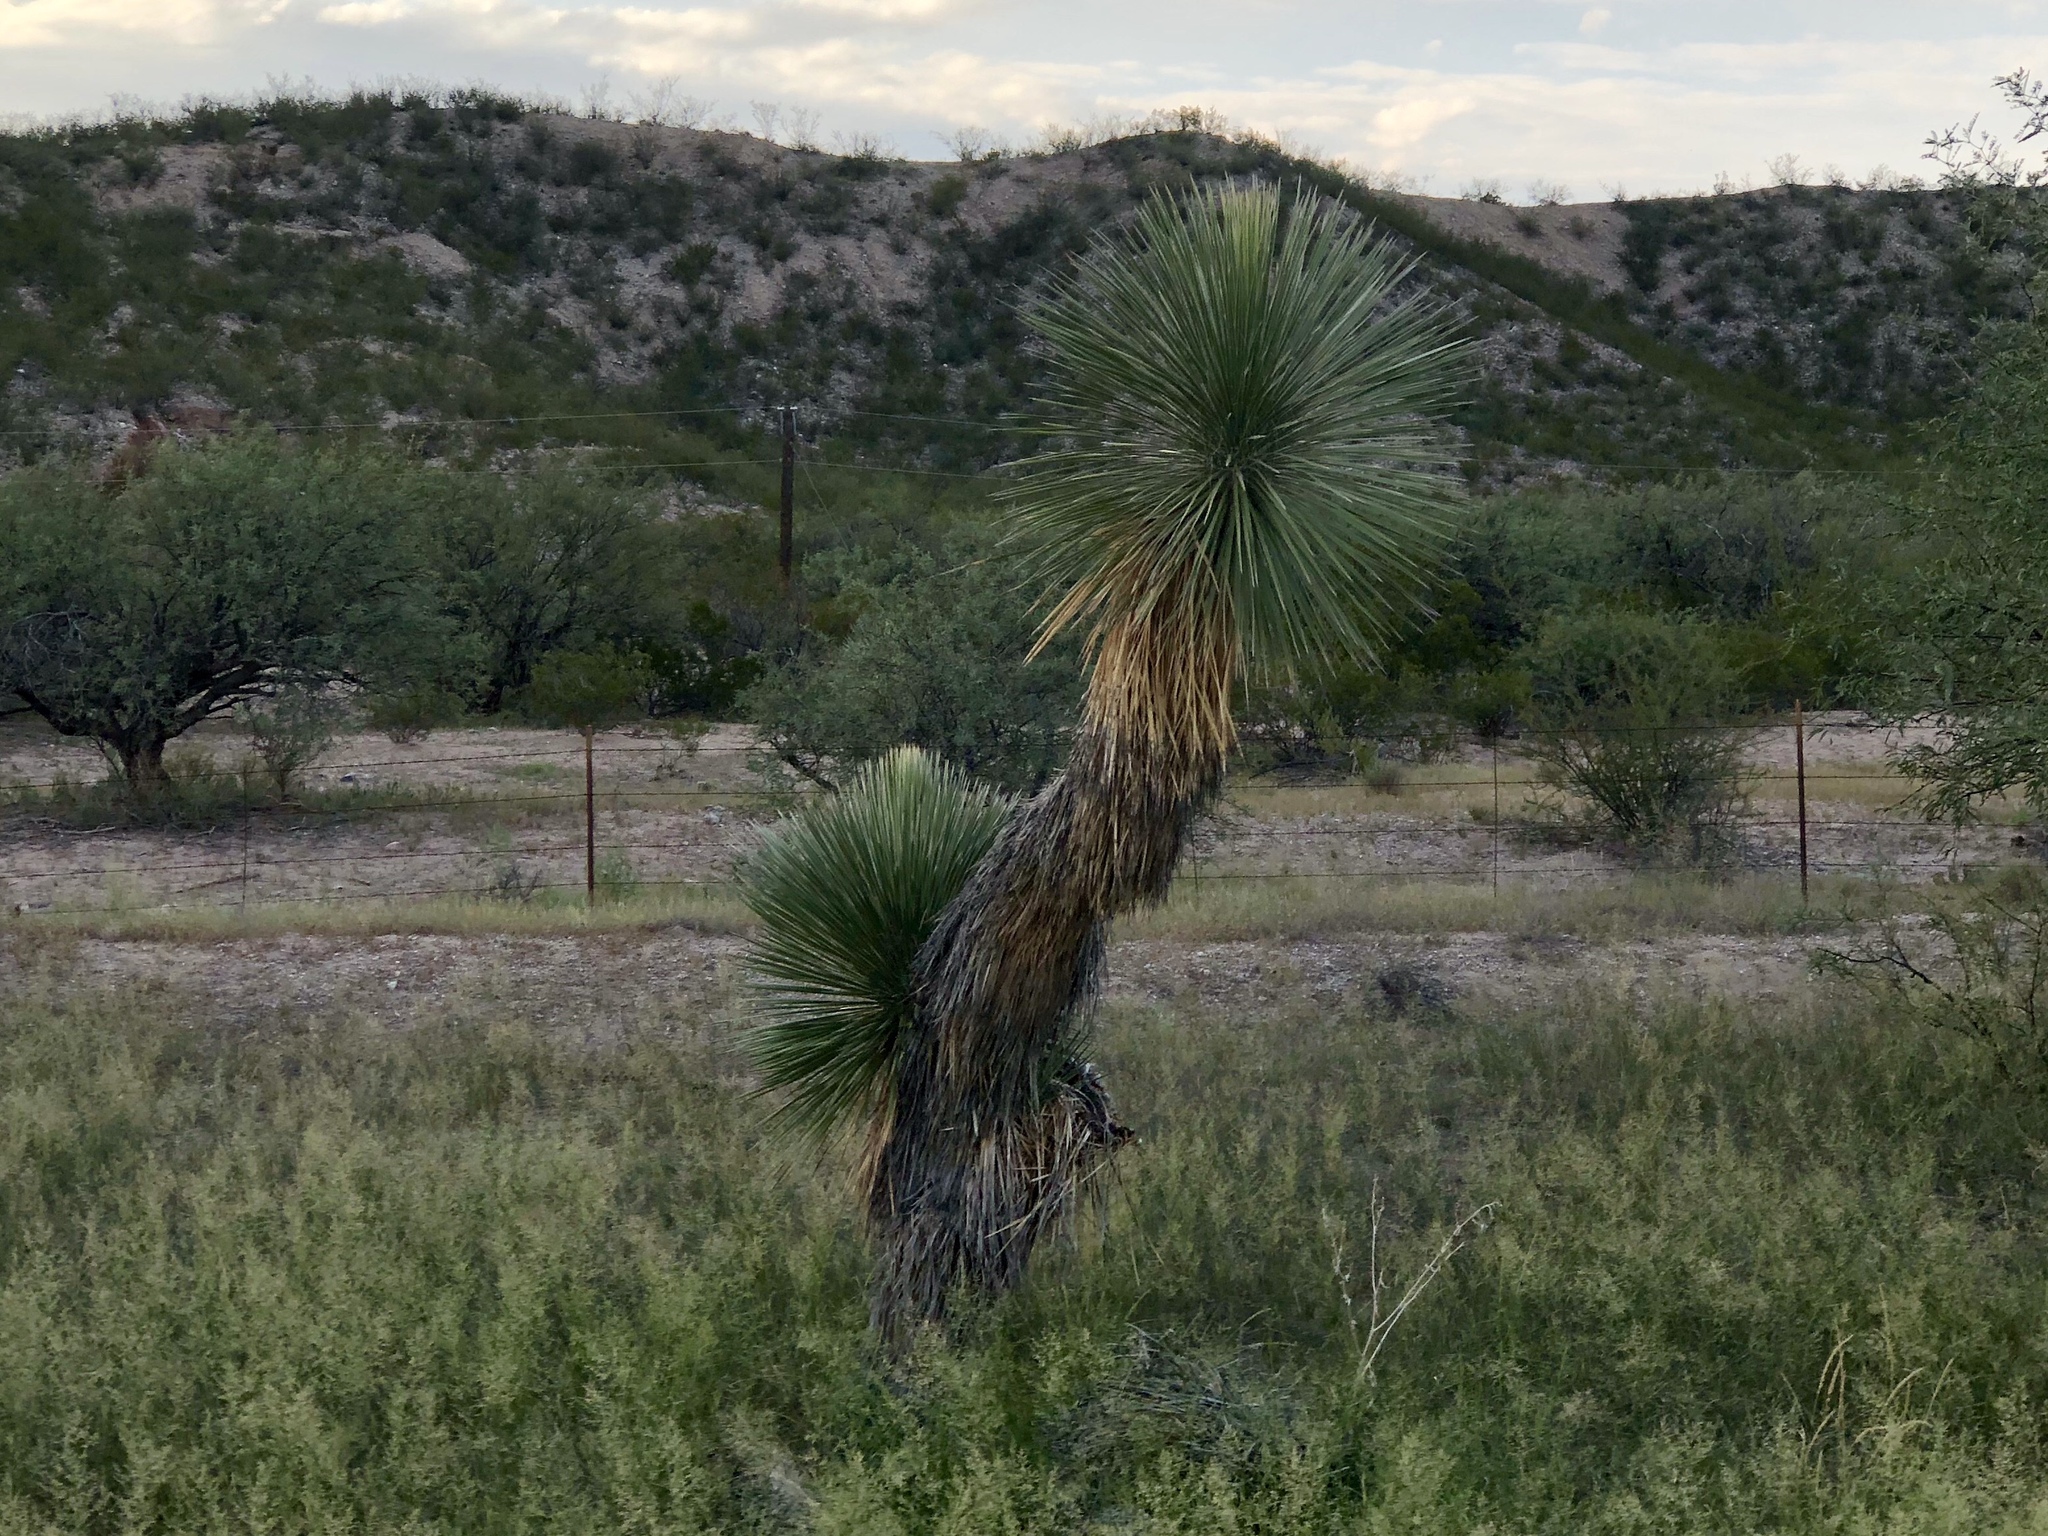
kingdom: Plantae
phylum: Tracheophyta
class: Liliopsida
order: Asparagales
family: Asparagaceae
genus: Yucca
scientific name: Yucca elata
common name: Palmella
